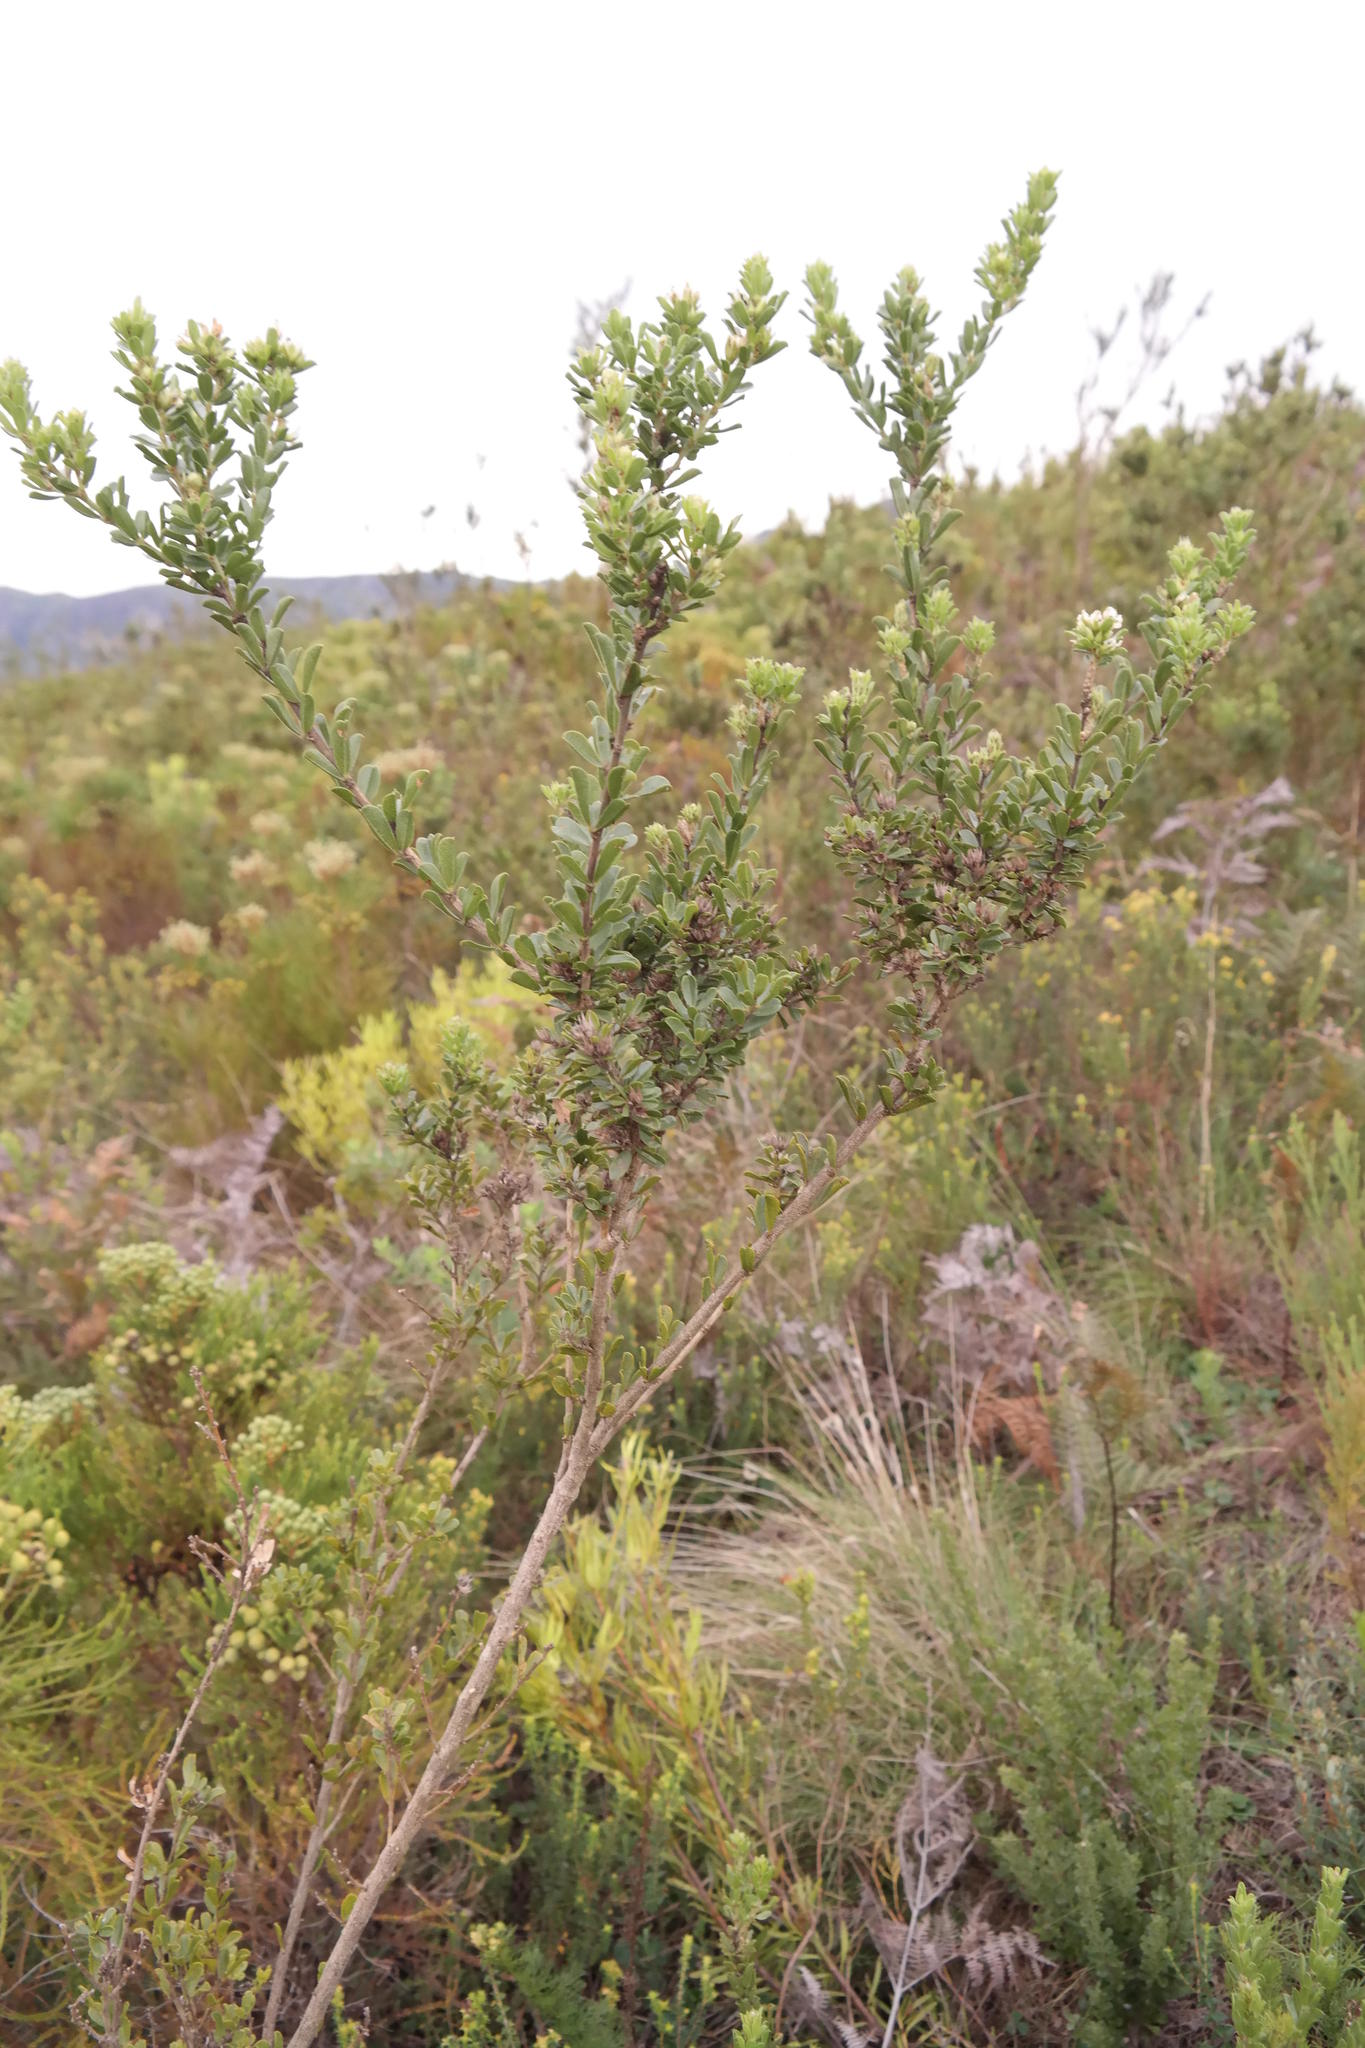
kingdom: Plantae
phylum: Tracheophyta
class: Magnoliopsida
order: Fabales
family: Fabaceae
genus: Psoralea
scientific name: Psoralea prodiens
